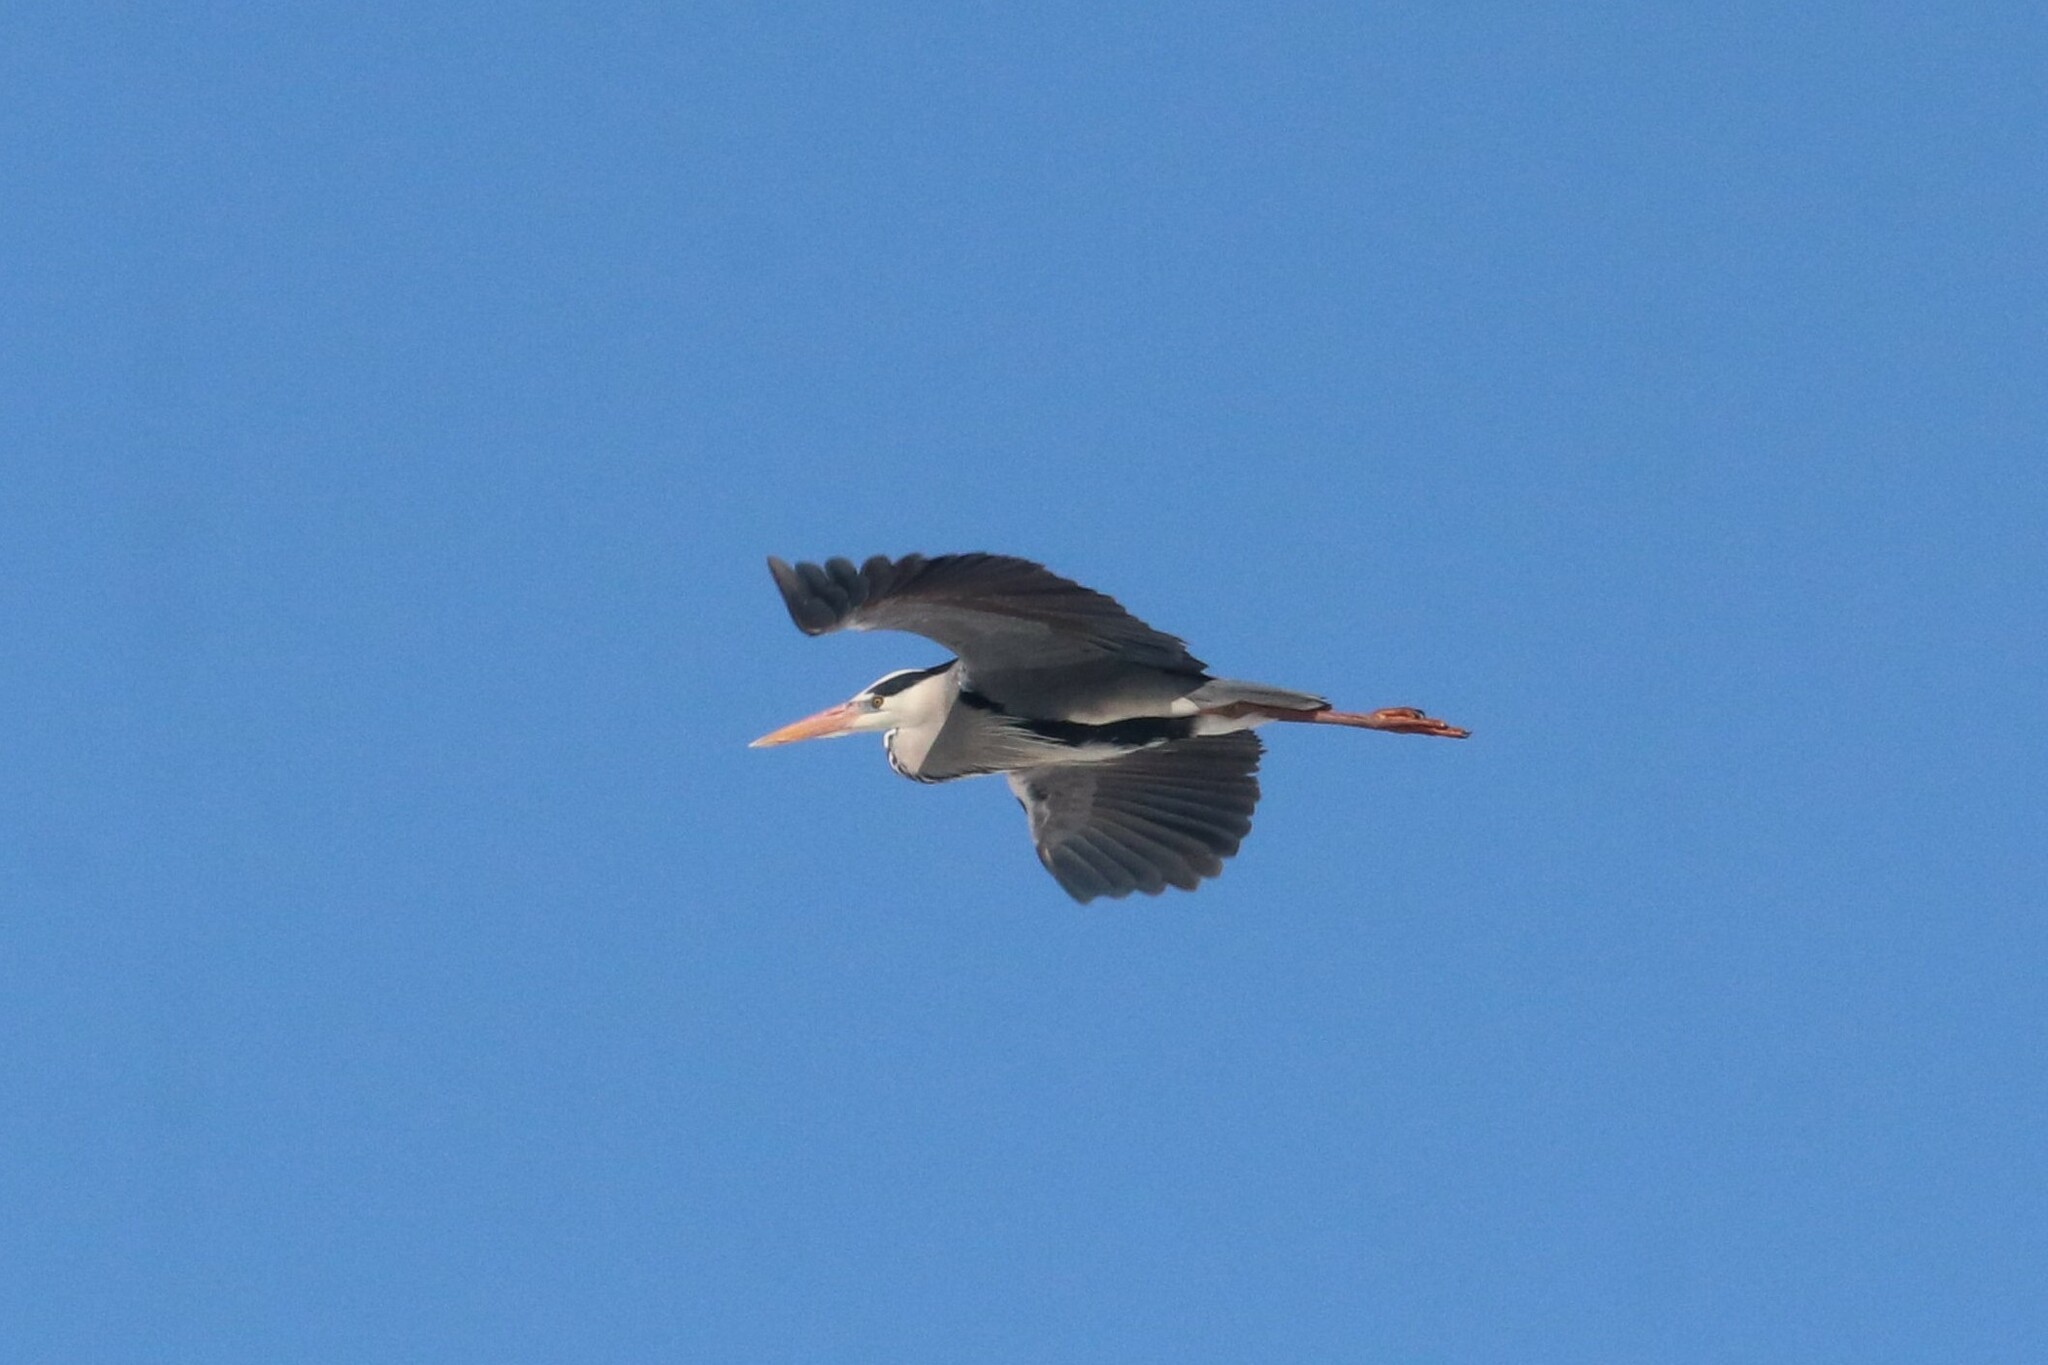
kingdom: Animalia
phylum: Chordata
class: Aves
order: Pelecaniformes
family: Ardeidae
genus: Ardea
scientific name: Ardea cinerea
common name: Grey heron
